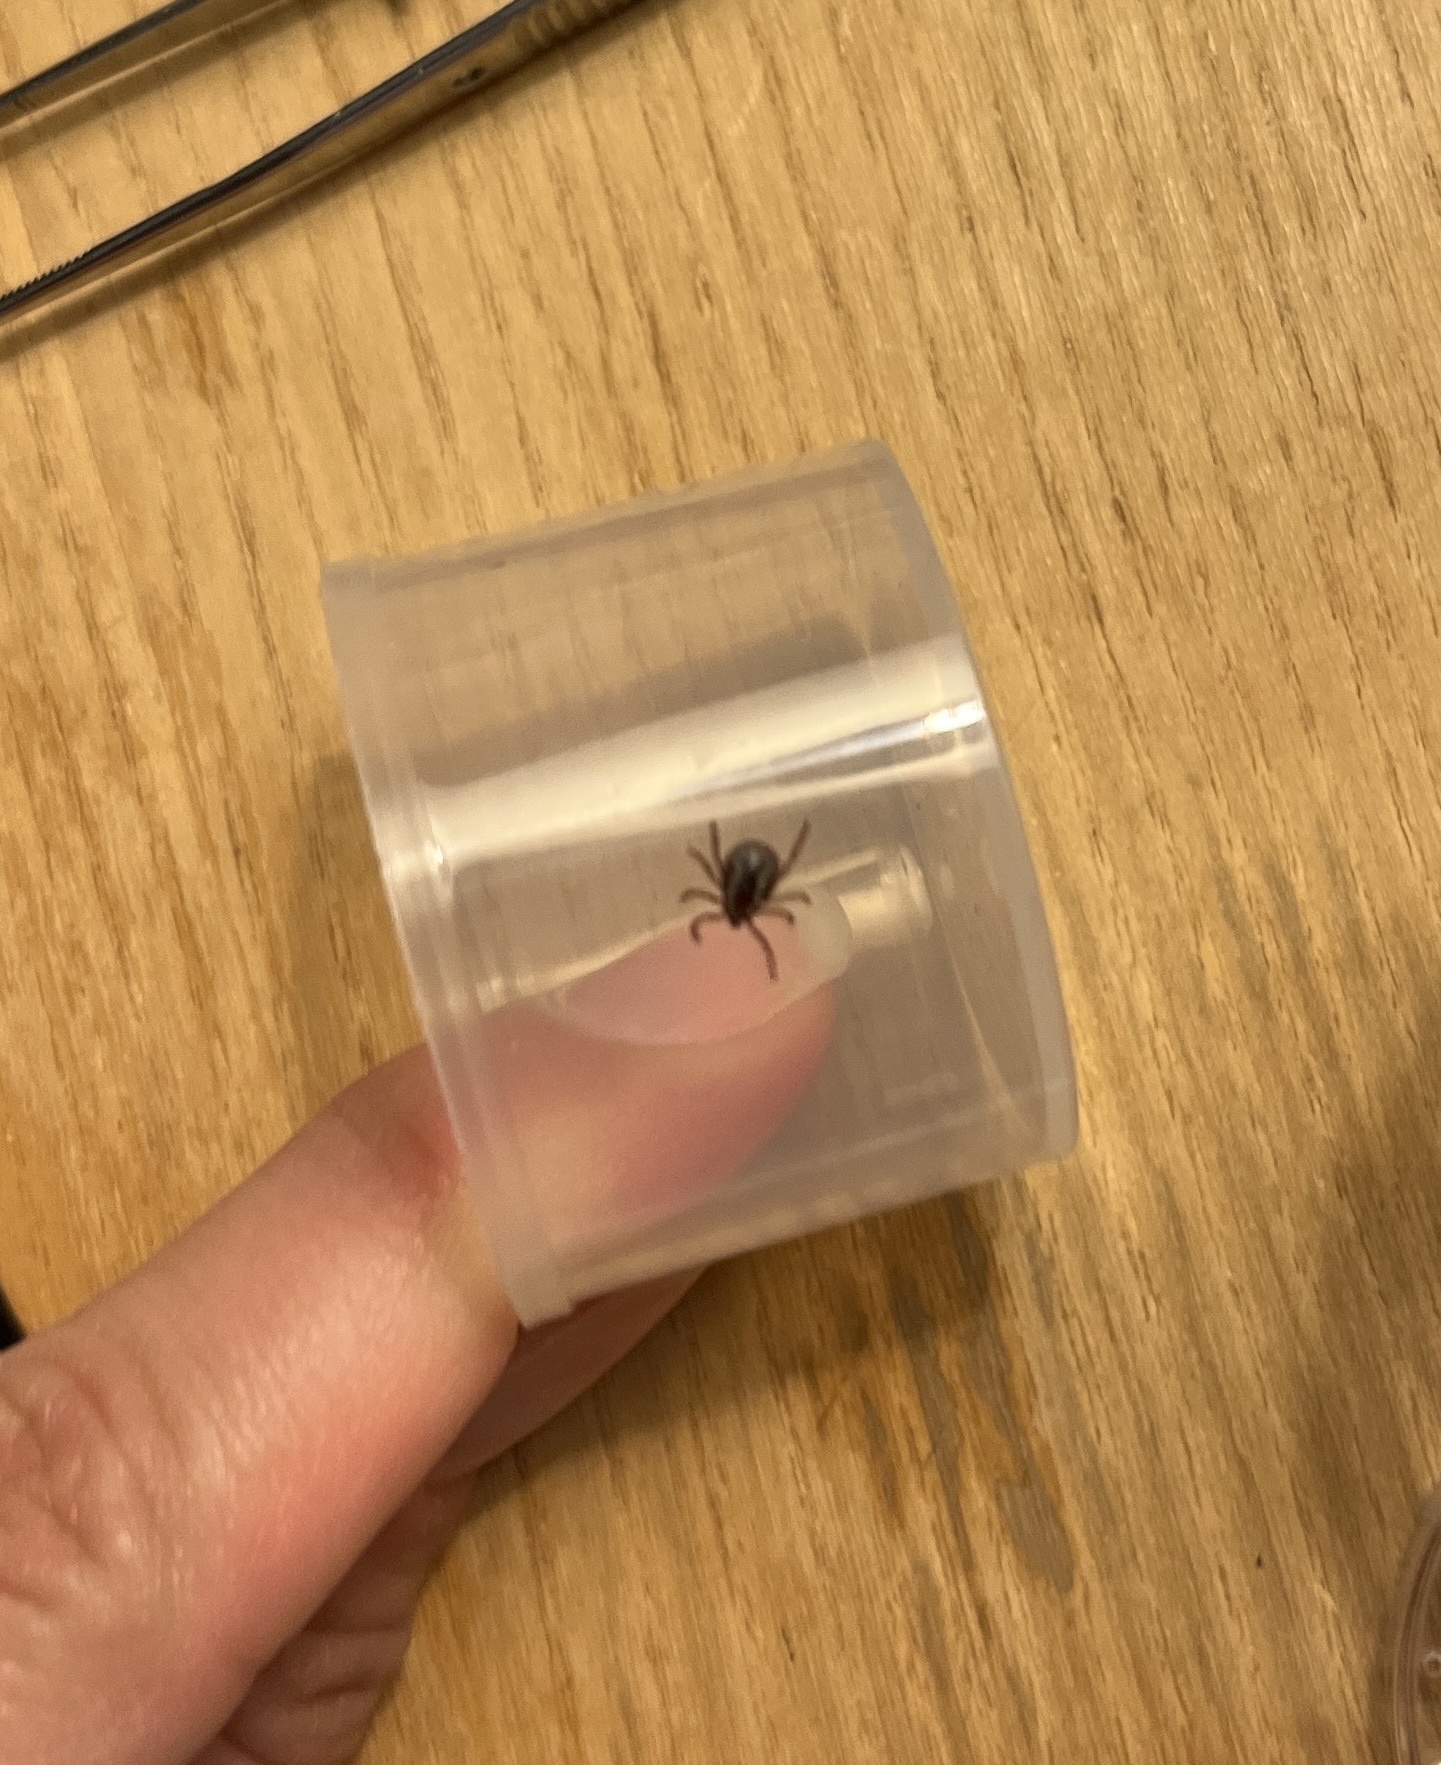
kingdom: Animalia
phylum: Arthropoda
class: Arachnida
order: Ixodida
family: Ixodidae
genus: Dermacentor
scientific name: Dermacentor variabilis
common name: American dog tick
